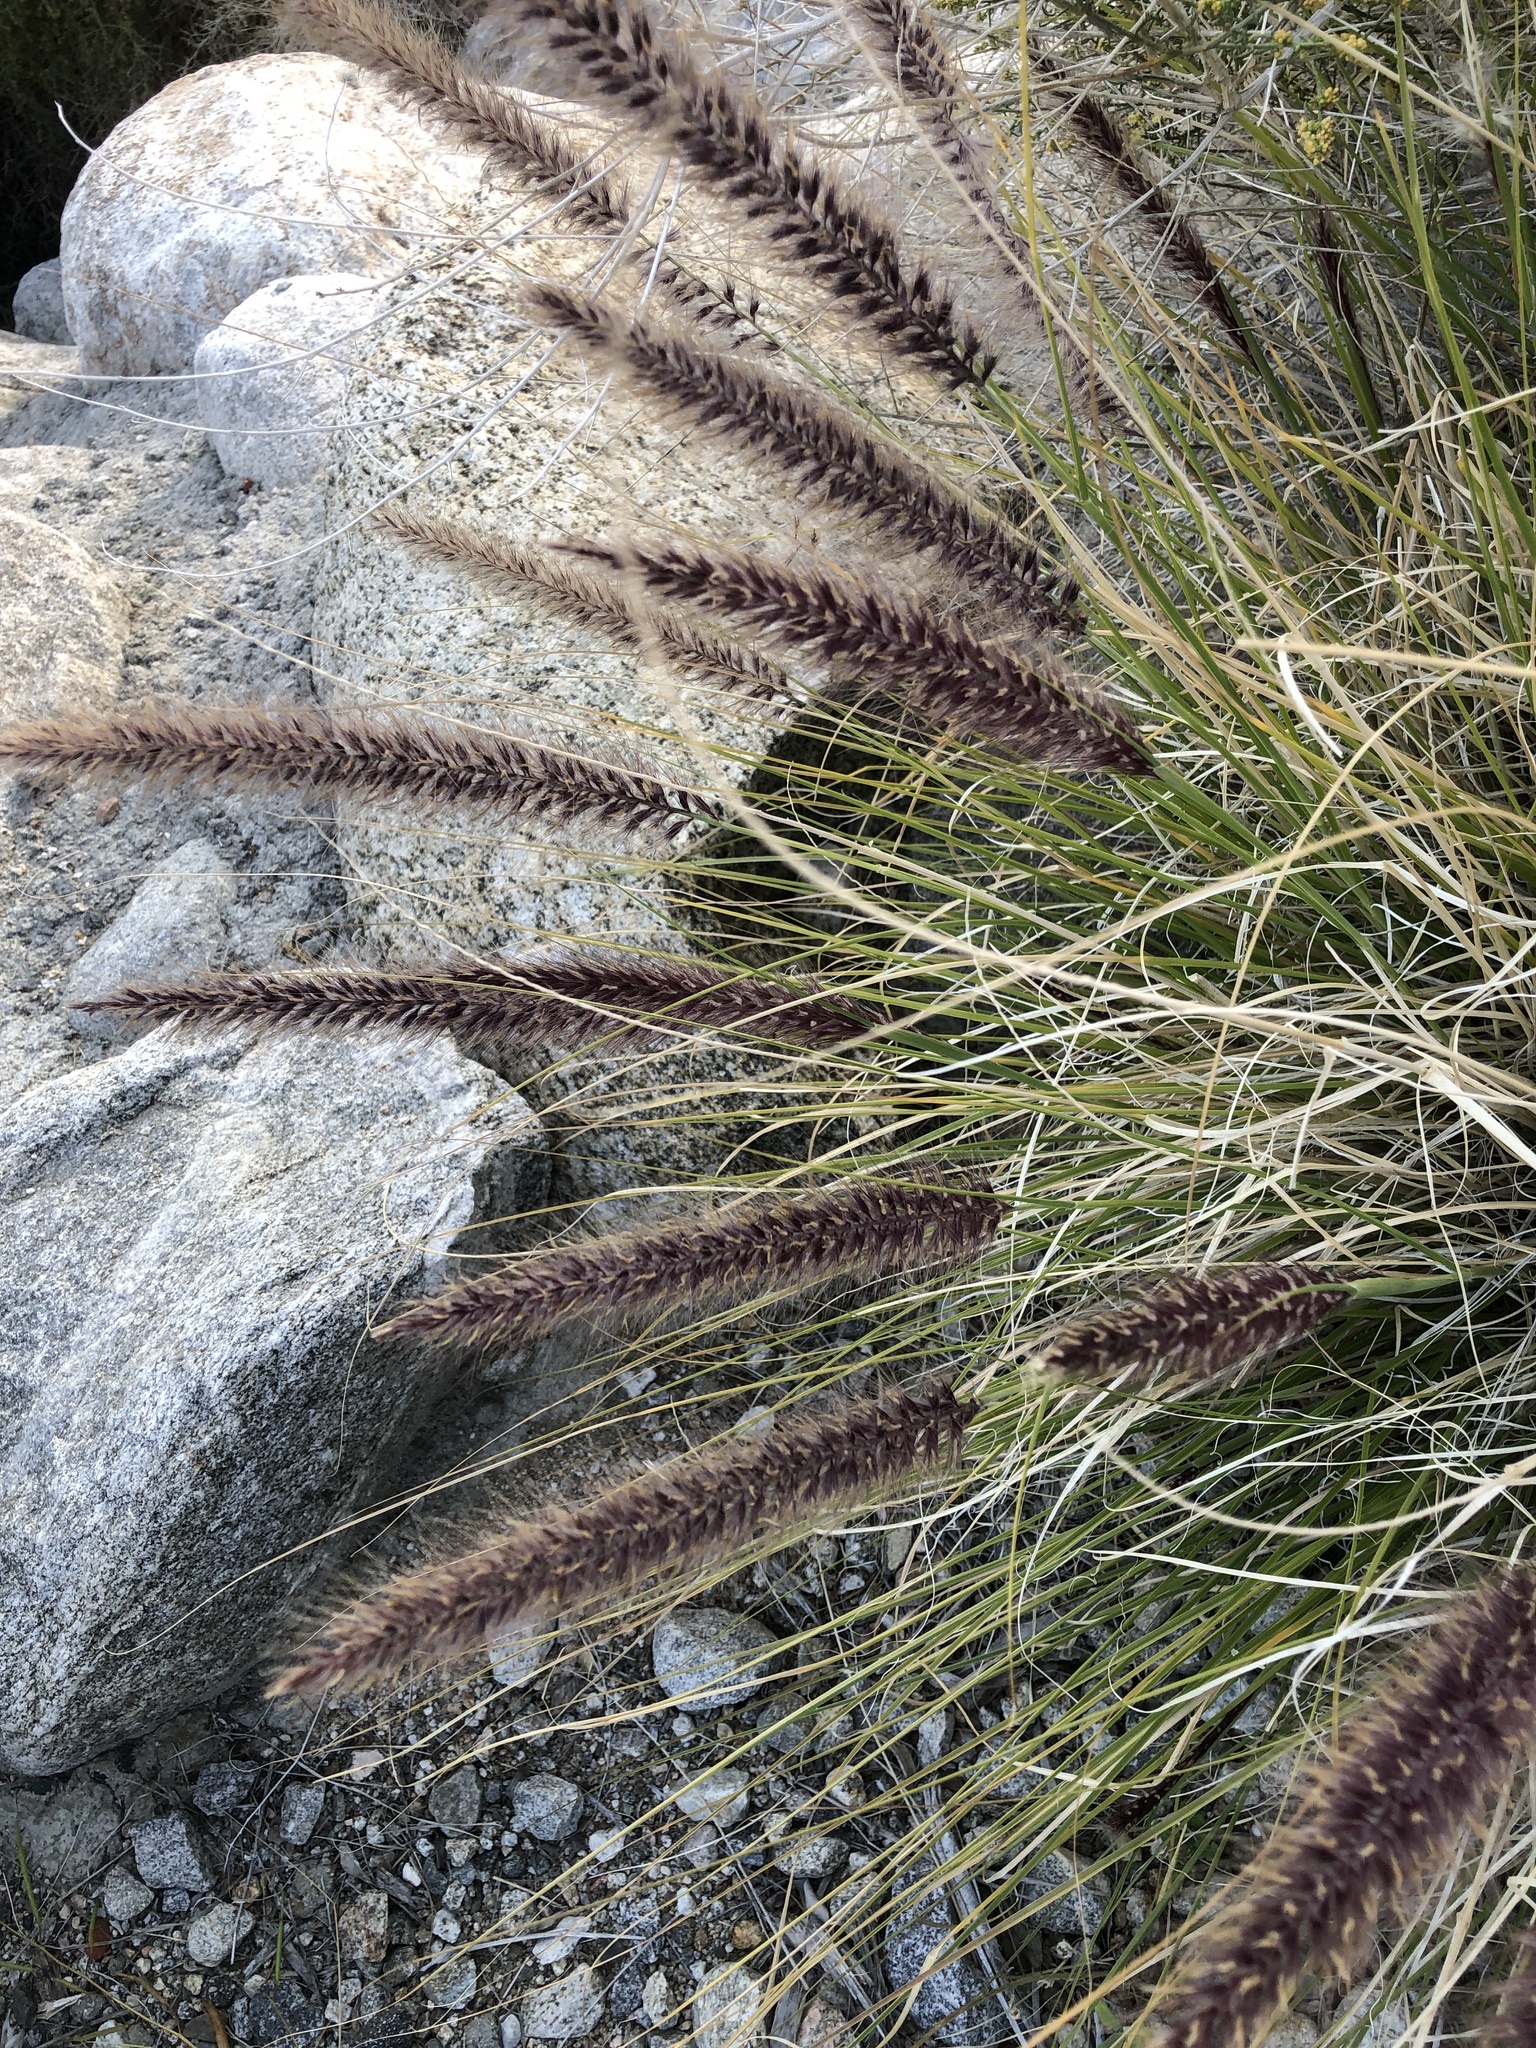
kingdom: Plantae
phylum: Tracheophyta
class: Liliopsida
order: Poales
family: Poaceae
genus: Cenchrus
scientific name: Cenchrus setaceus
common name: Crimson fountaingrass
